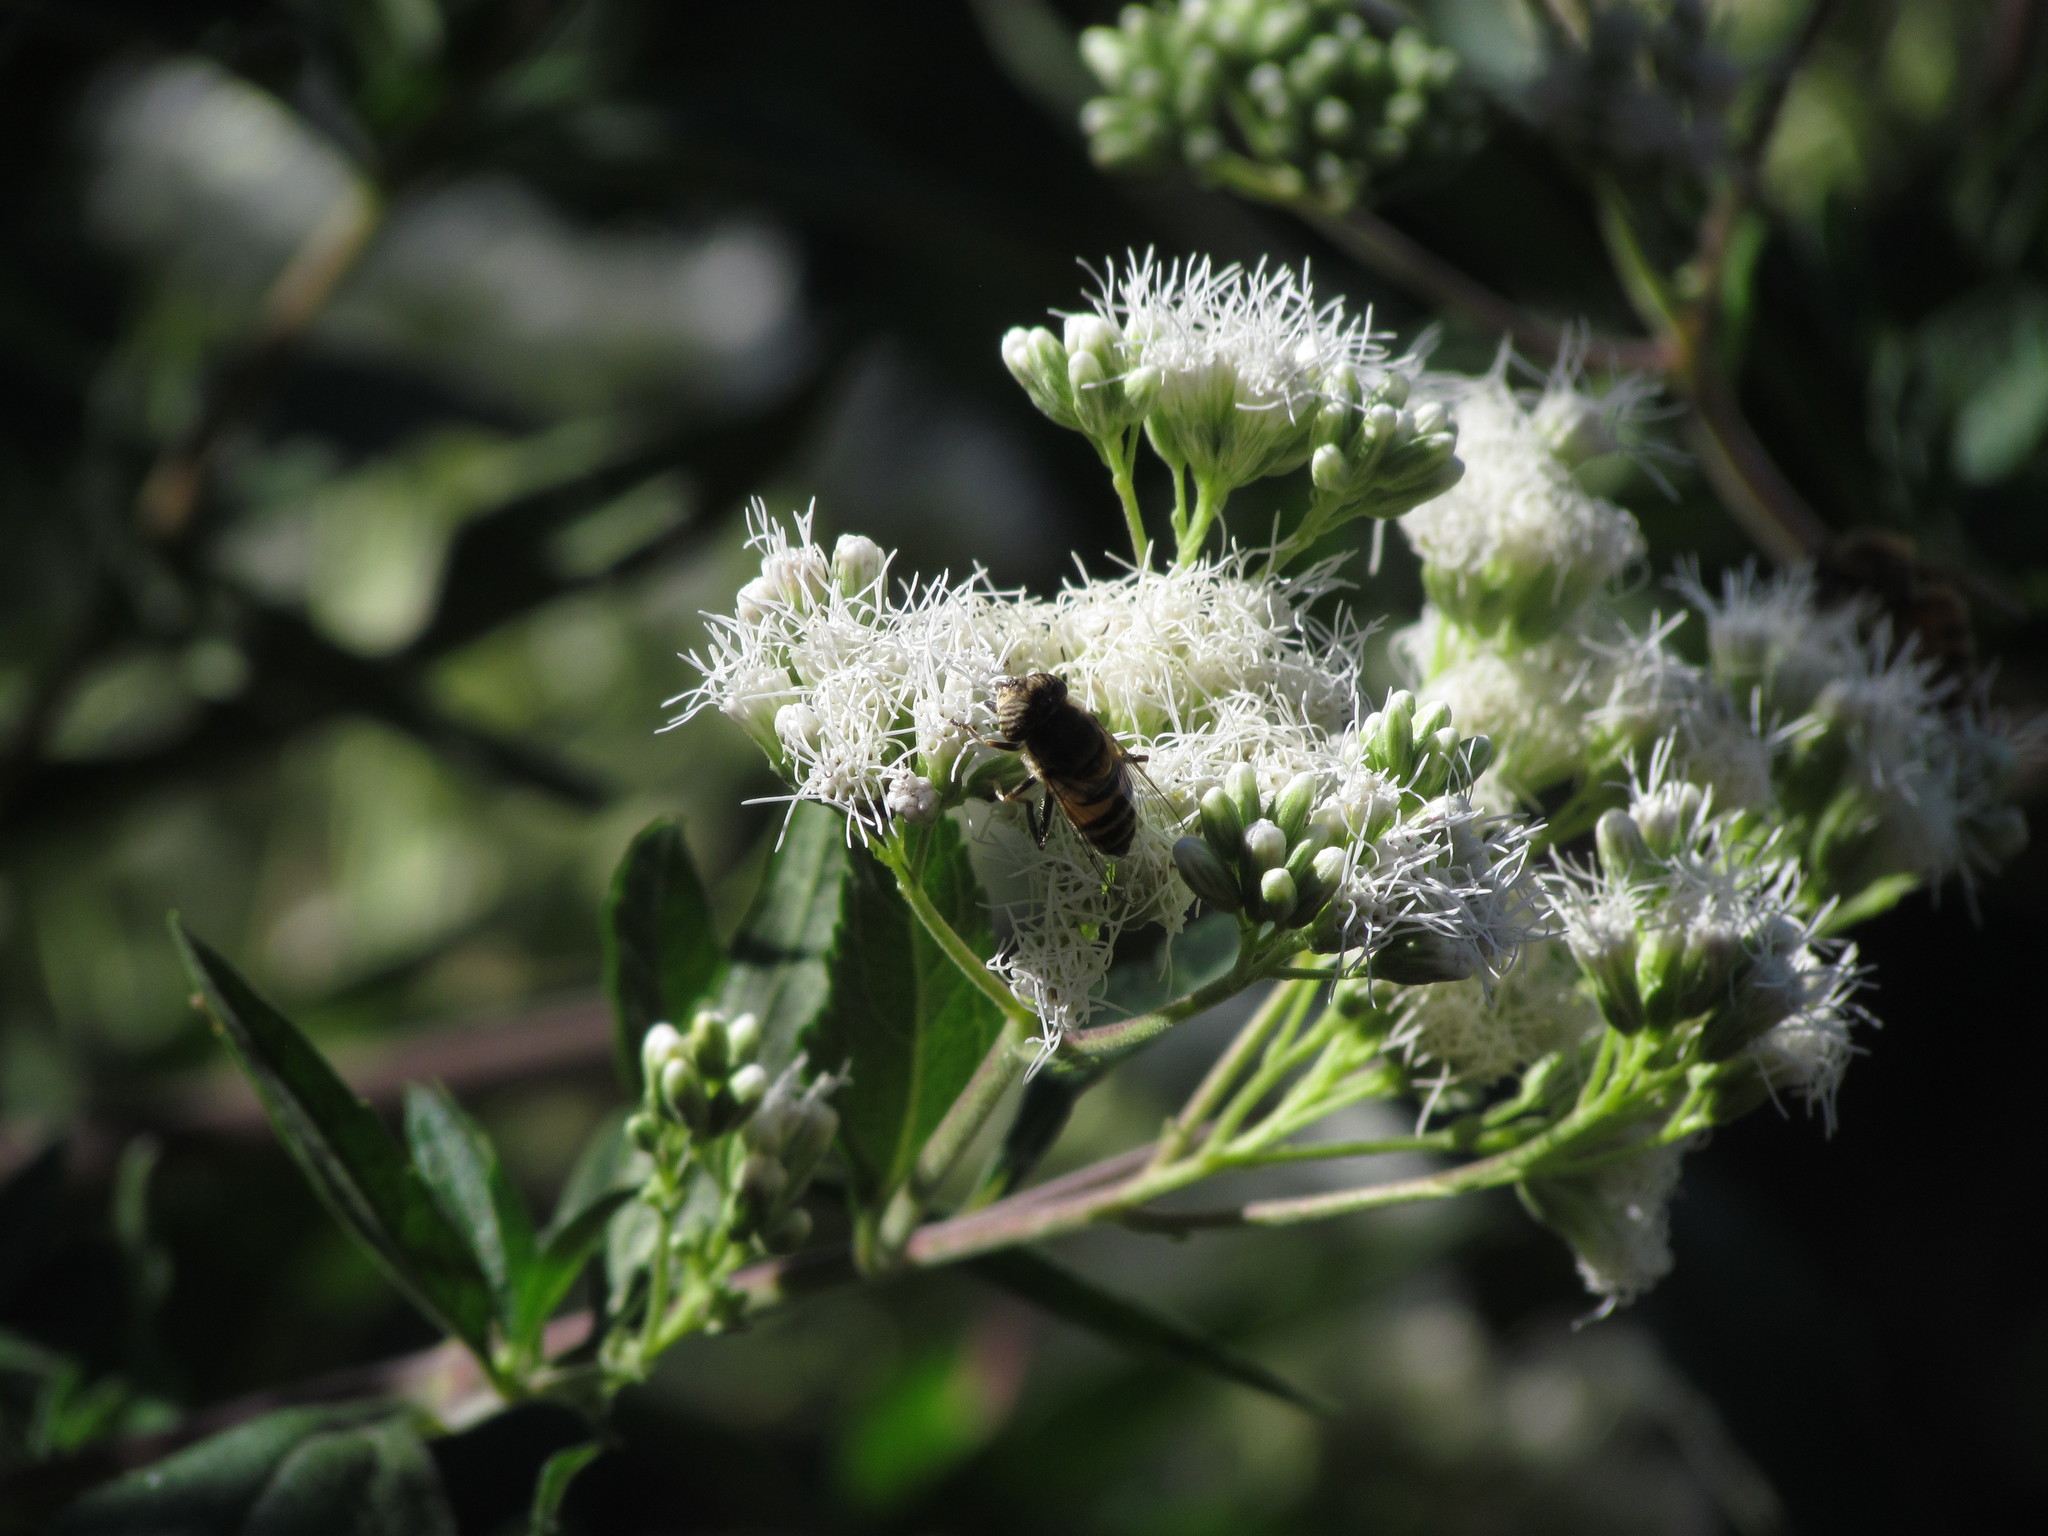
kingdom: Animalia
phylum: Arthropoda
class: Insecta
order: Diptera
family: Syrphidae
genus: Eristalinus
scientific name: Eristalinus taeniops
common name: Syrphid fly
